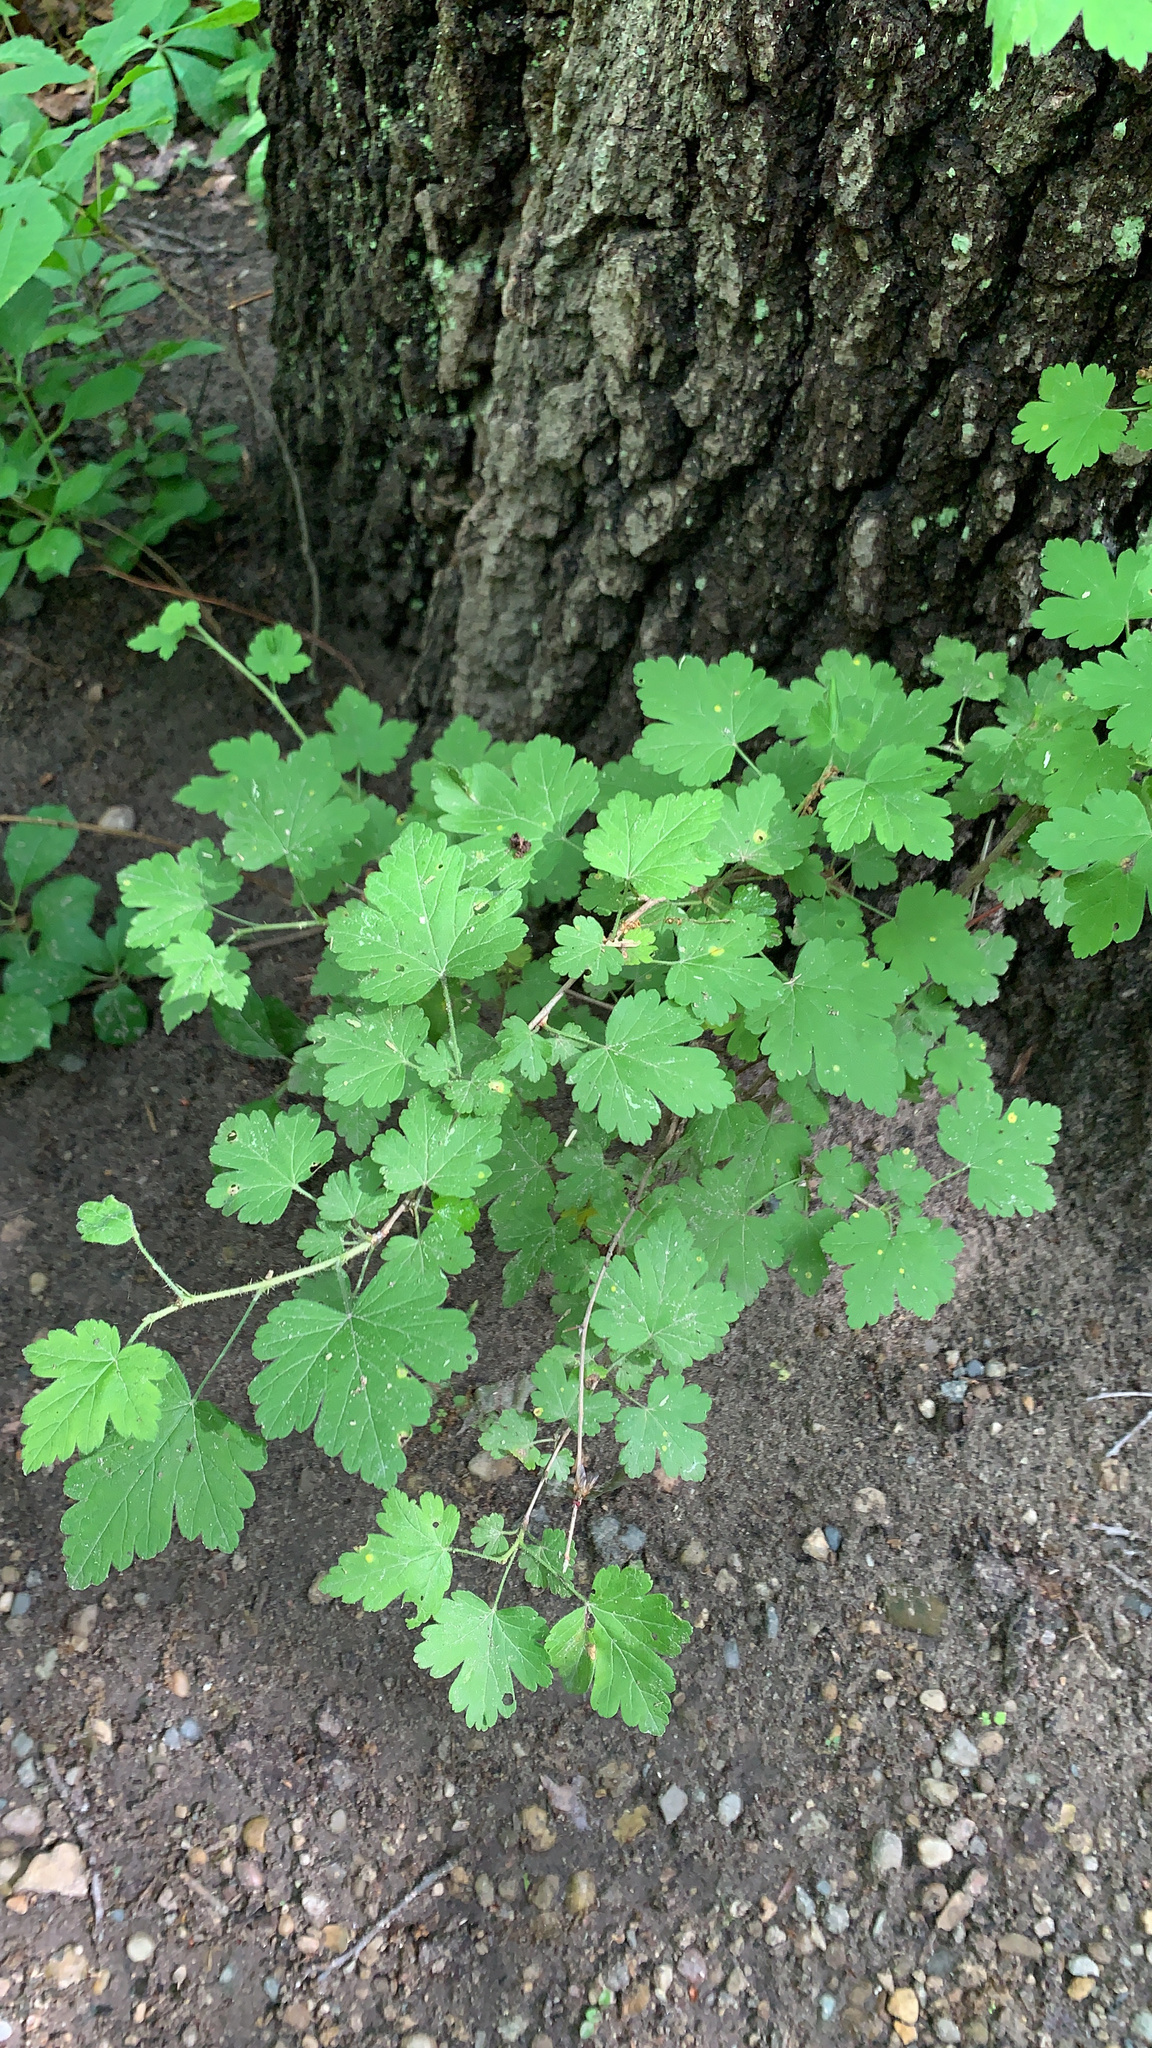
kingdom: Plantae
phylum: Tracheophyta
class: Magnoliopsida
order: Saxifragales
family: Grossulariaceae
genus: Ribes
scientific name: Ribes cynosbati
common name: American gooseberry
